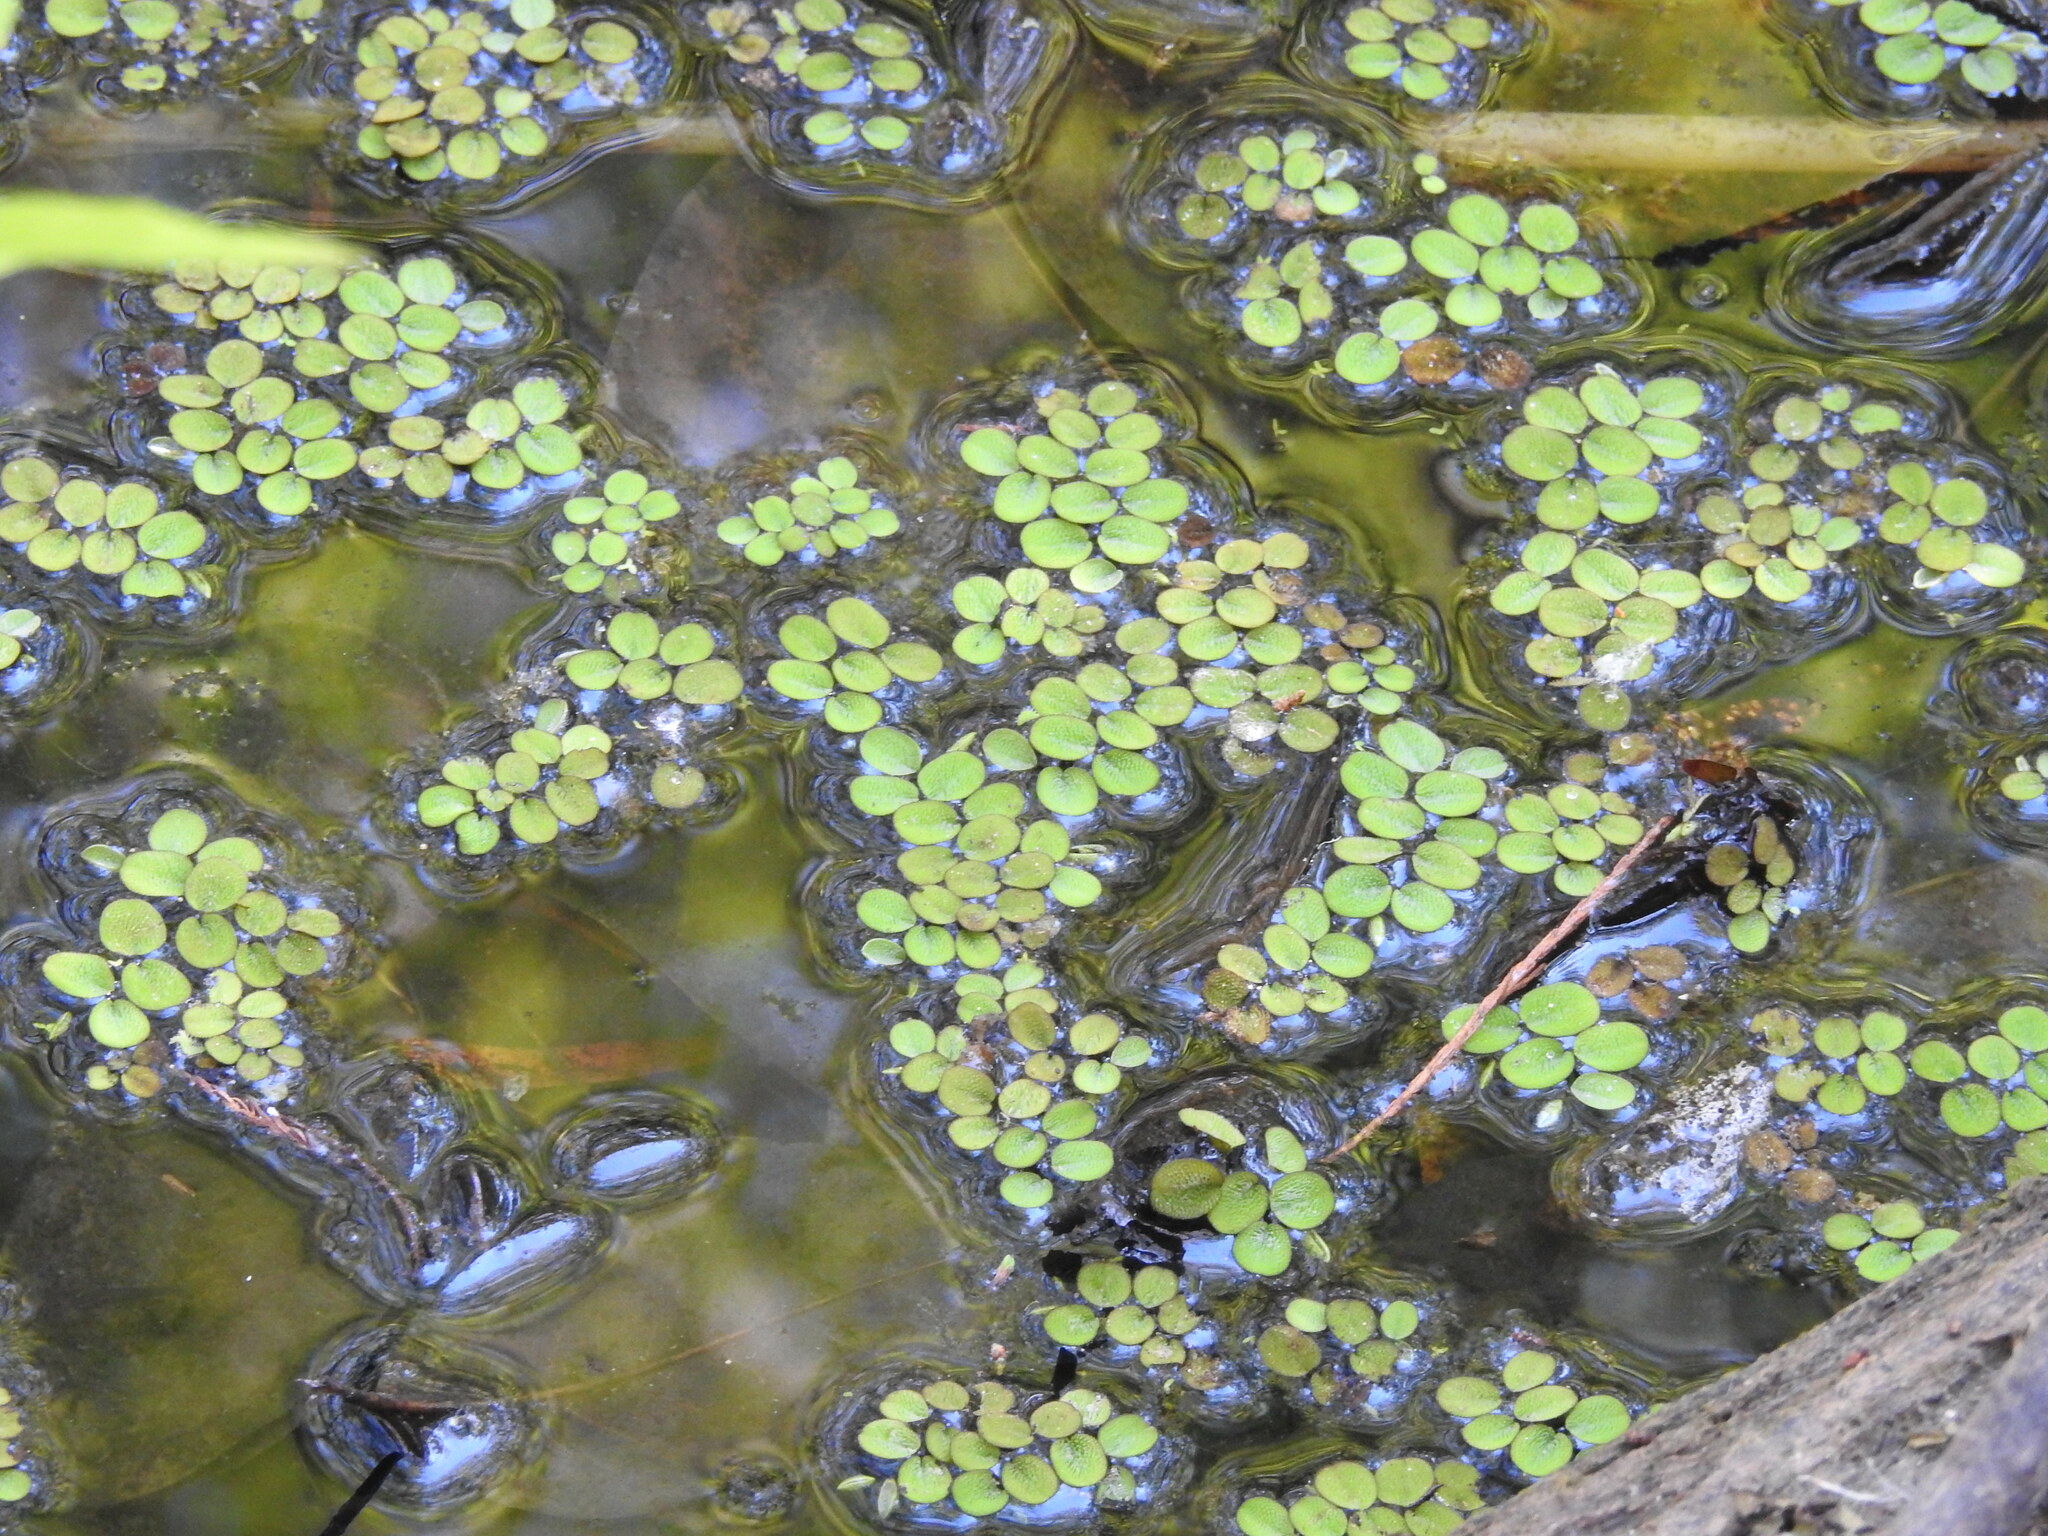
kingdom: Plantae
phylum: Tracheophyta
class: Polypodiopsida
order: Salviniales
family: Salviniaceae
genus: Salvinia
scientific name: Salvinia minima
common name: Water spangles
